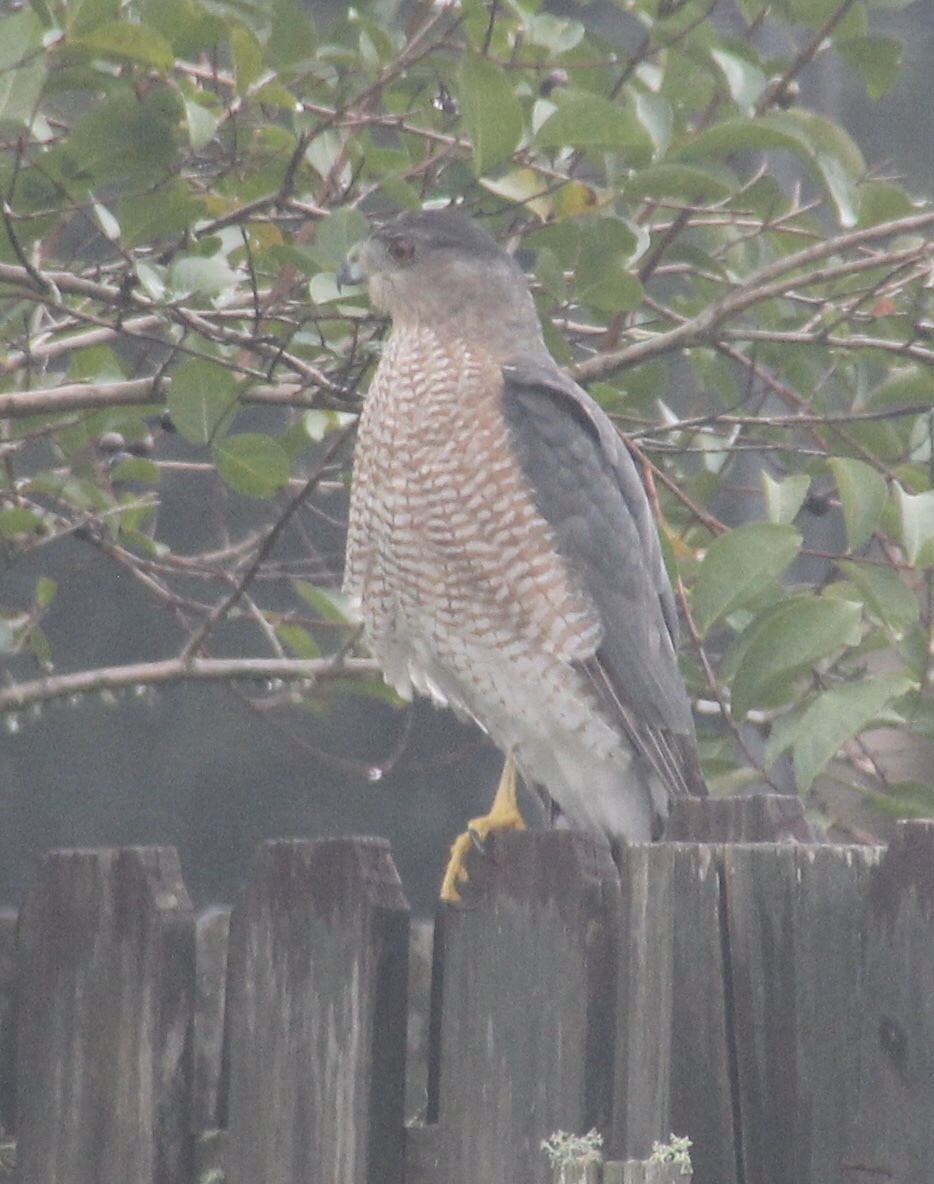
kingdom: Animalia
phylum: Chordata
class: Aves
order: Accipitriformes
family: Accipitridae
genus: Accipiter
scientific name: Accipiter cooperii
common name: Cooper's hawk
